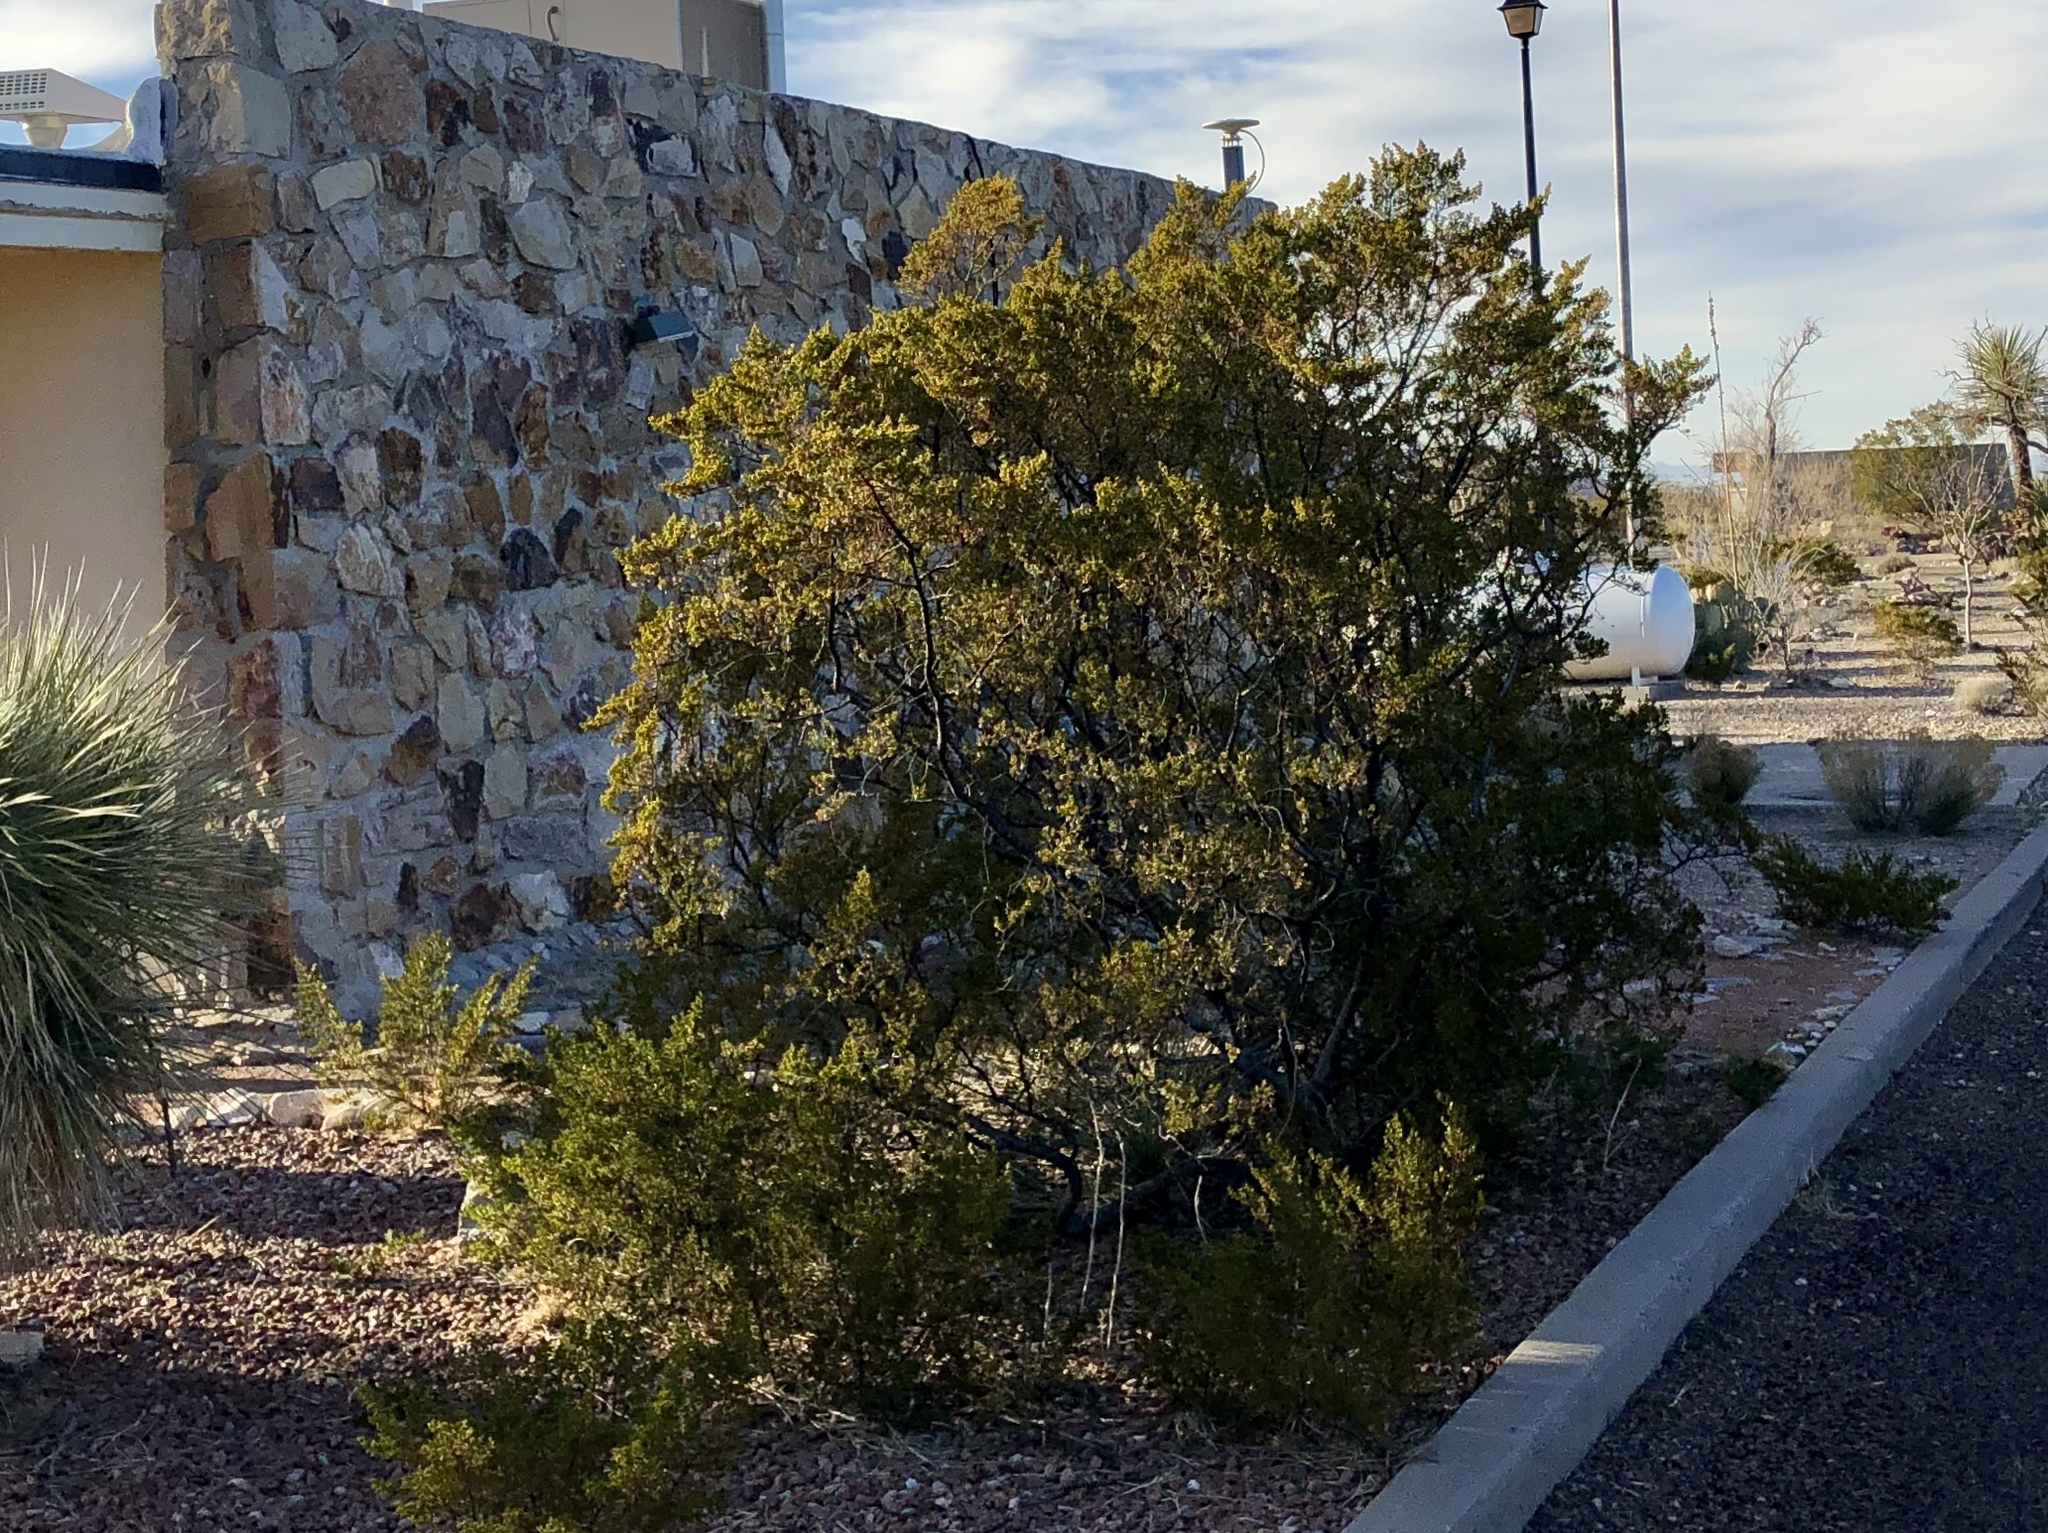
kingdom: Plantae
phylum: Tracheophyta
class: Magnoliopsida
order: Zygophyllales
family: Zygophyllaceae
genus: Larrea
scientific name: Larrea tridentata
